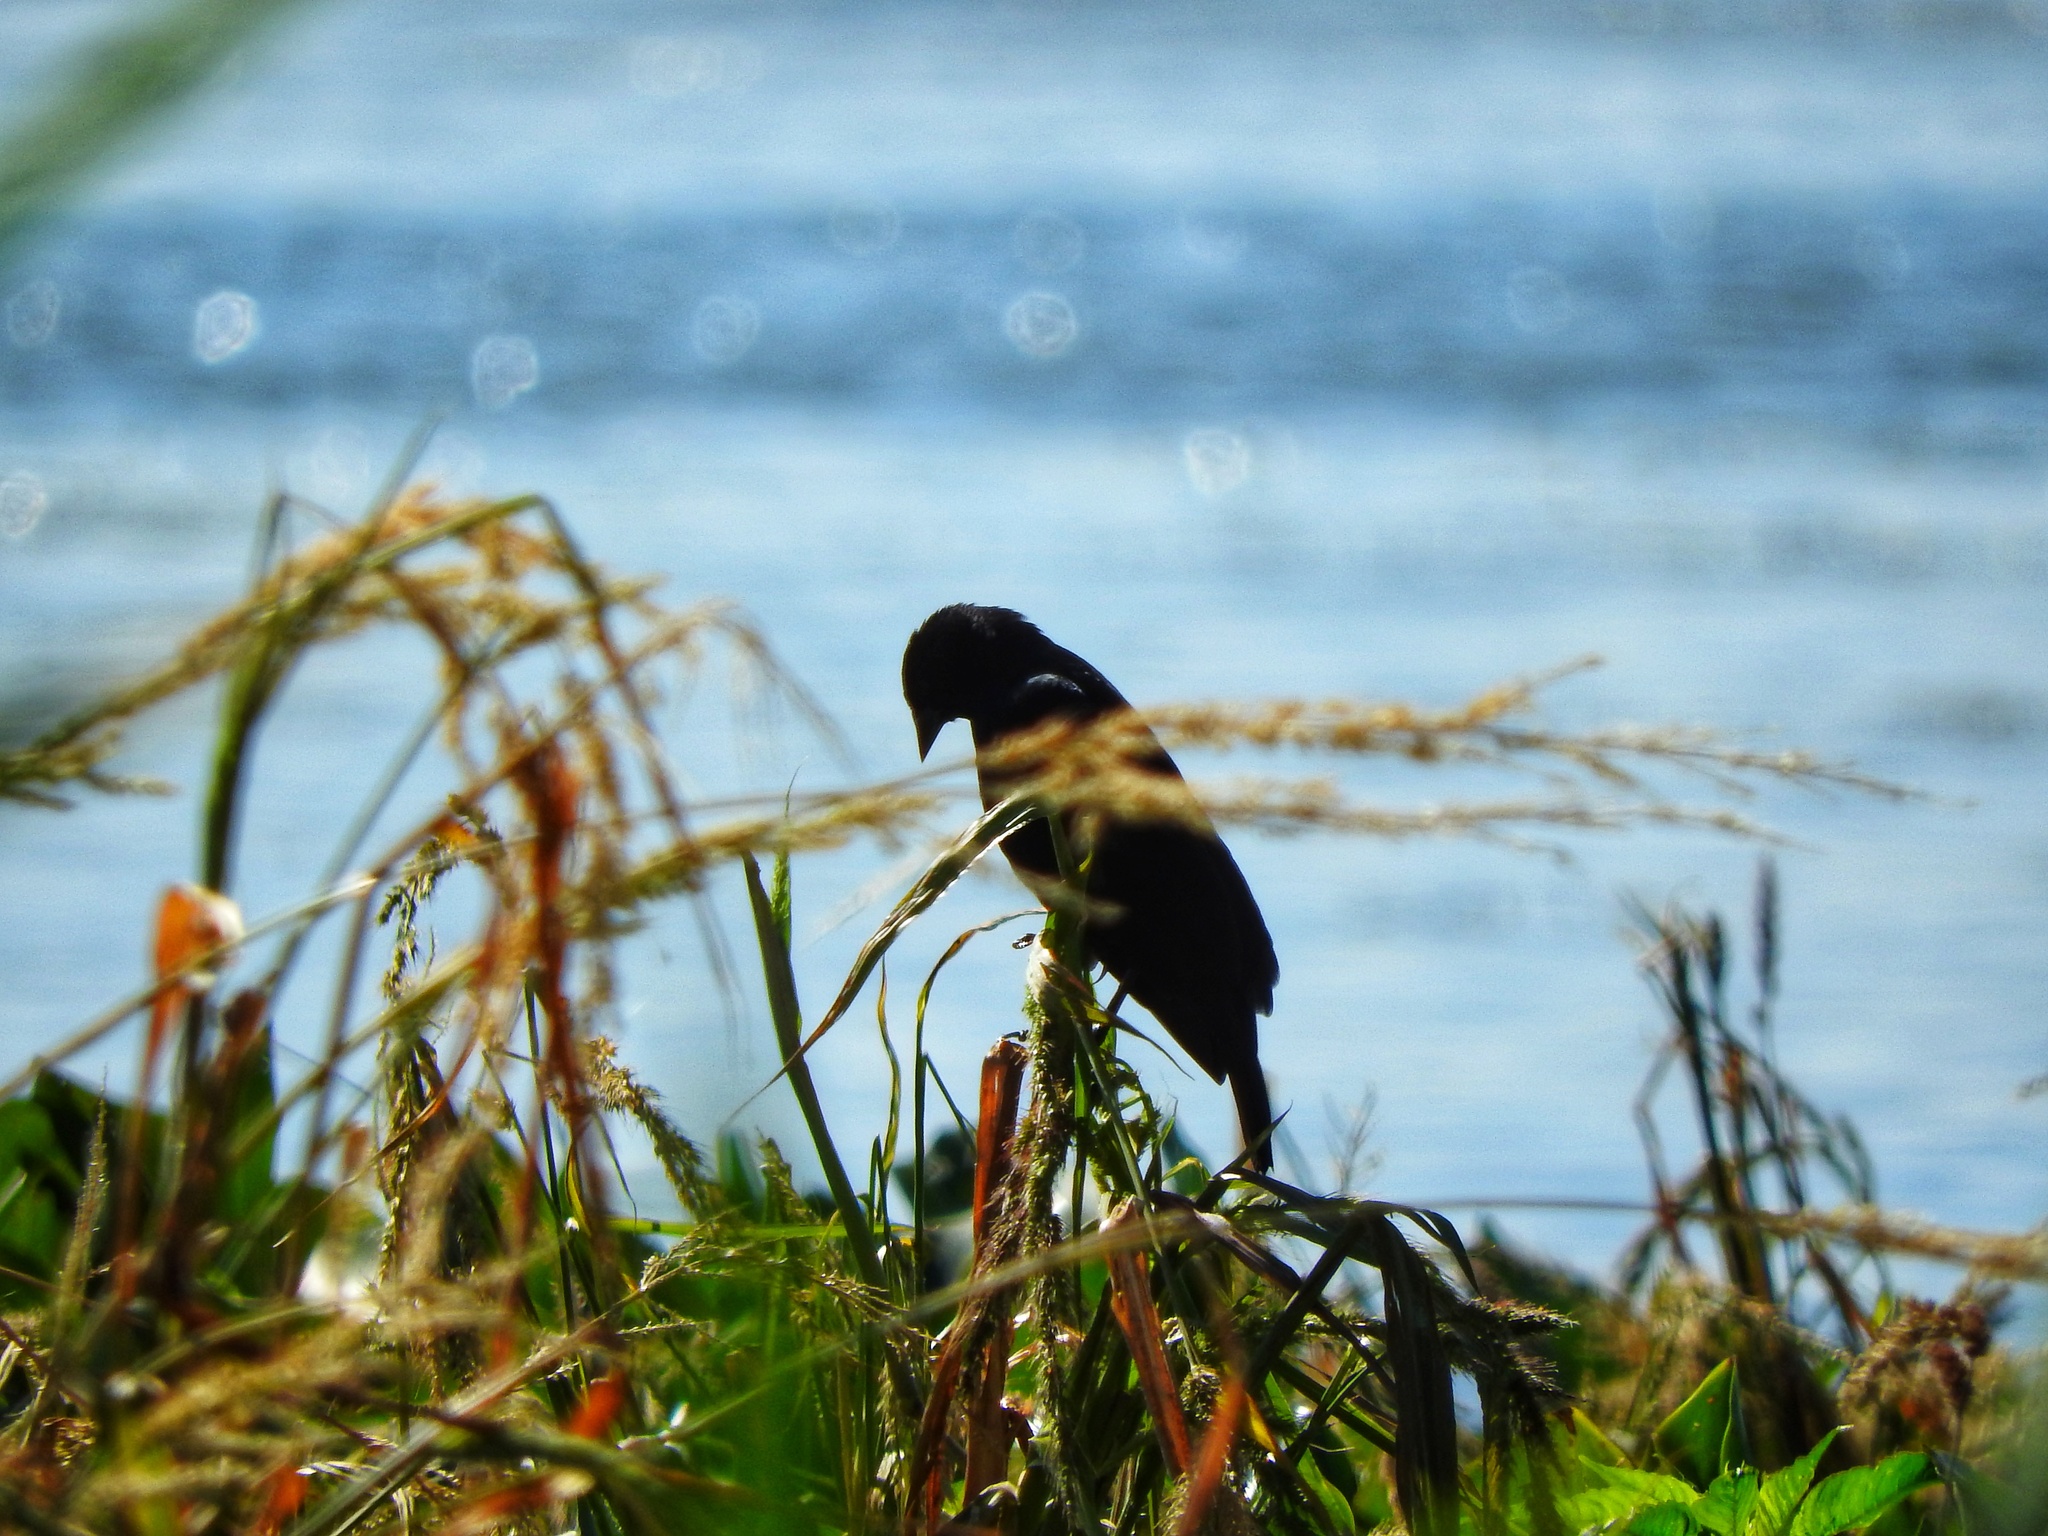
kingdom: Animalia
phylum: Chordata
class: Aves
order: Passeriformes
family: Icteridae
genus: Agelaius
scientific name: Agelaius phoeniceus
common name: Red-winged blackbird
